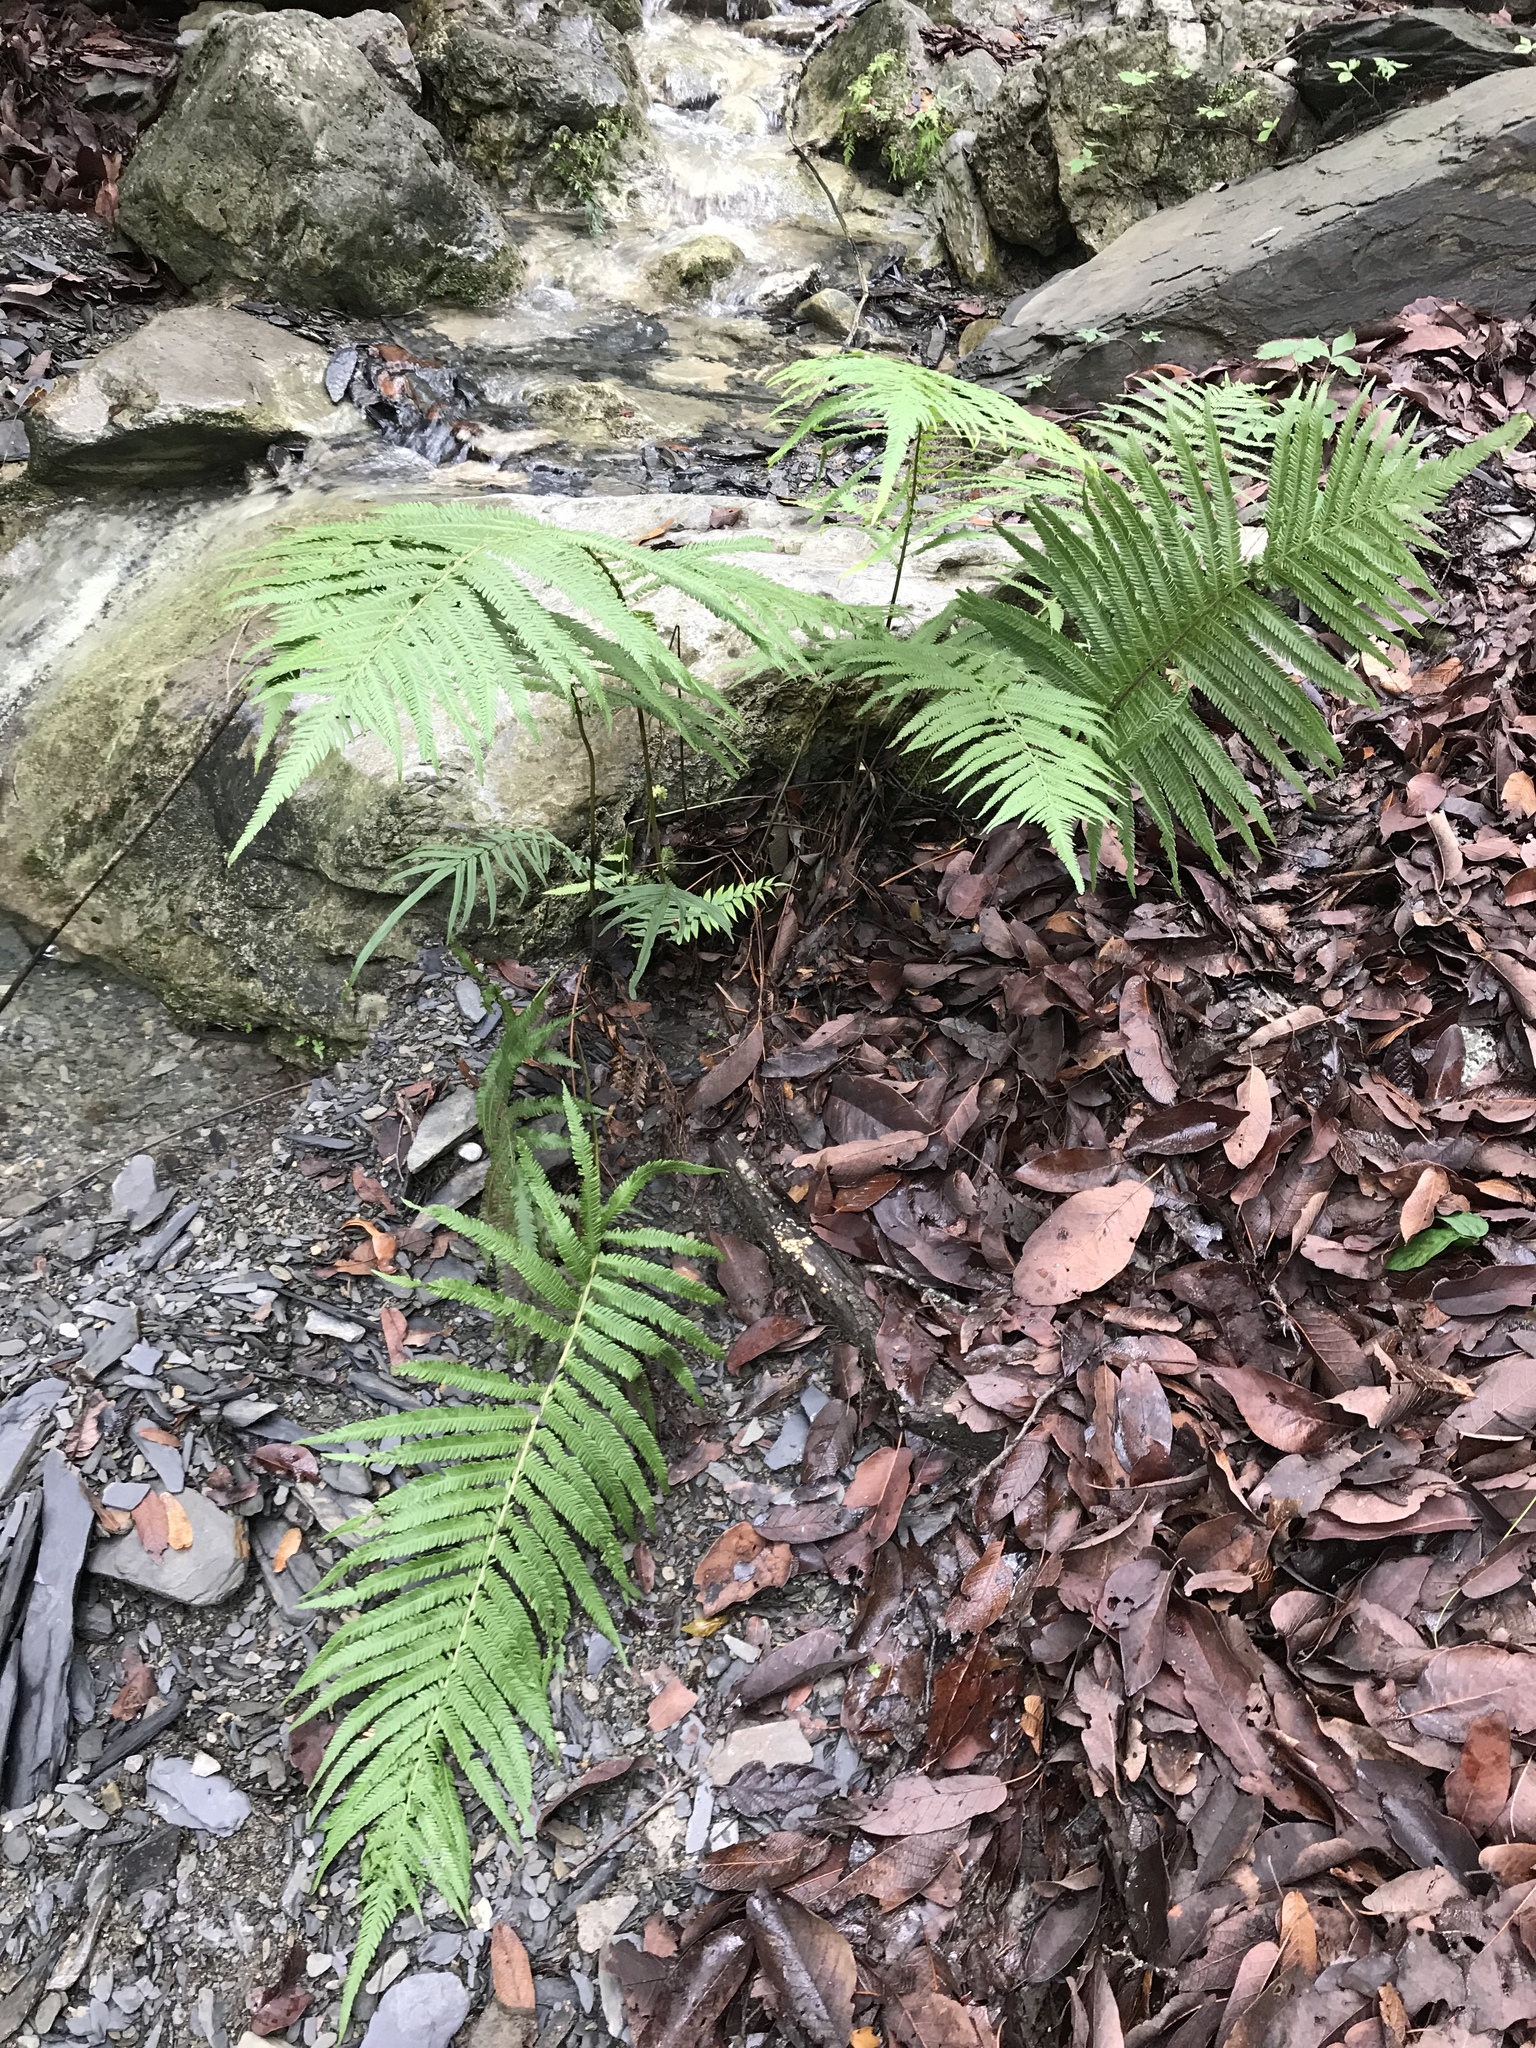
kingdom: Plantae
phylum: Tracheophyta
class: Polypodiopsida
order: Polypodiales
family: Thelypteridaceae
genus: Pelazoneuron
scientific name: Pelazoneuron puberulum
